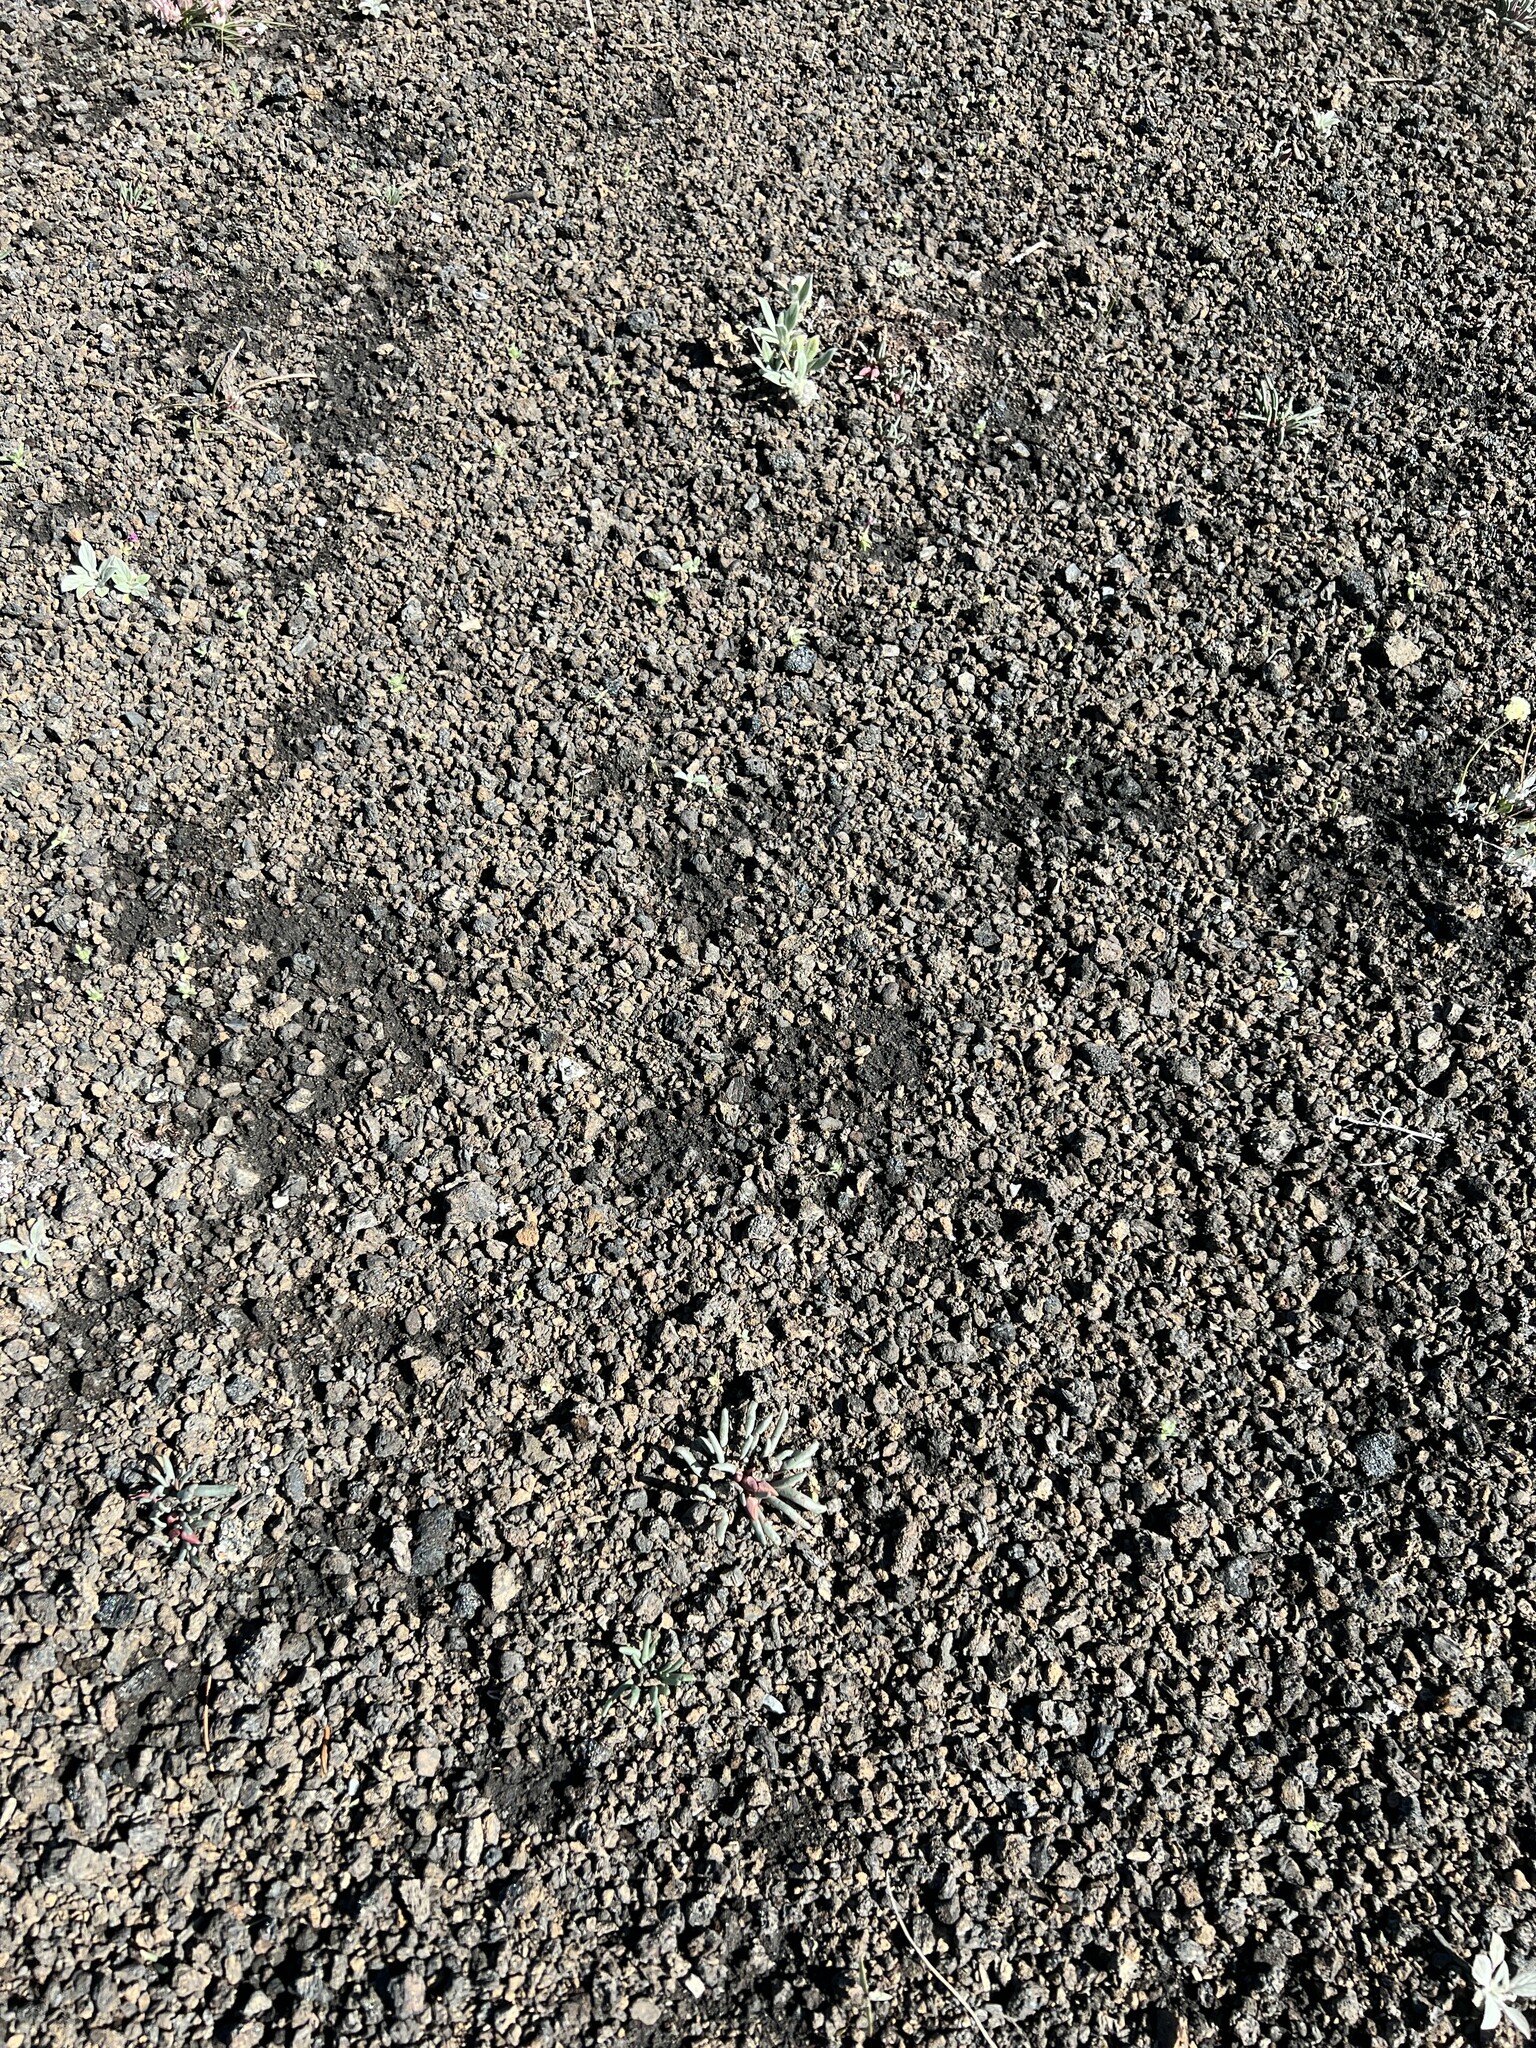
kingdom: Plantae
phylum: Tracheophyta
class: Magnoliopsida
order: Caryophyllales
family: Montiaceae
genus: Lewisia
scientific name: Lewisia rediviva
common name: Bitter-root
